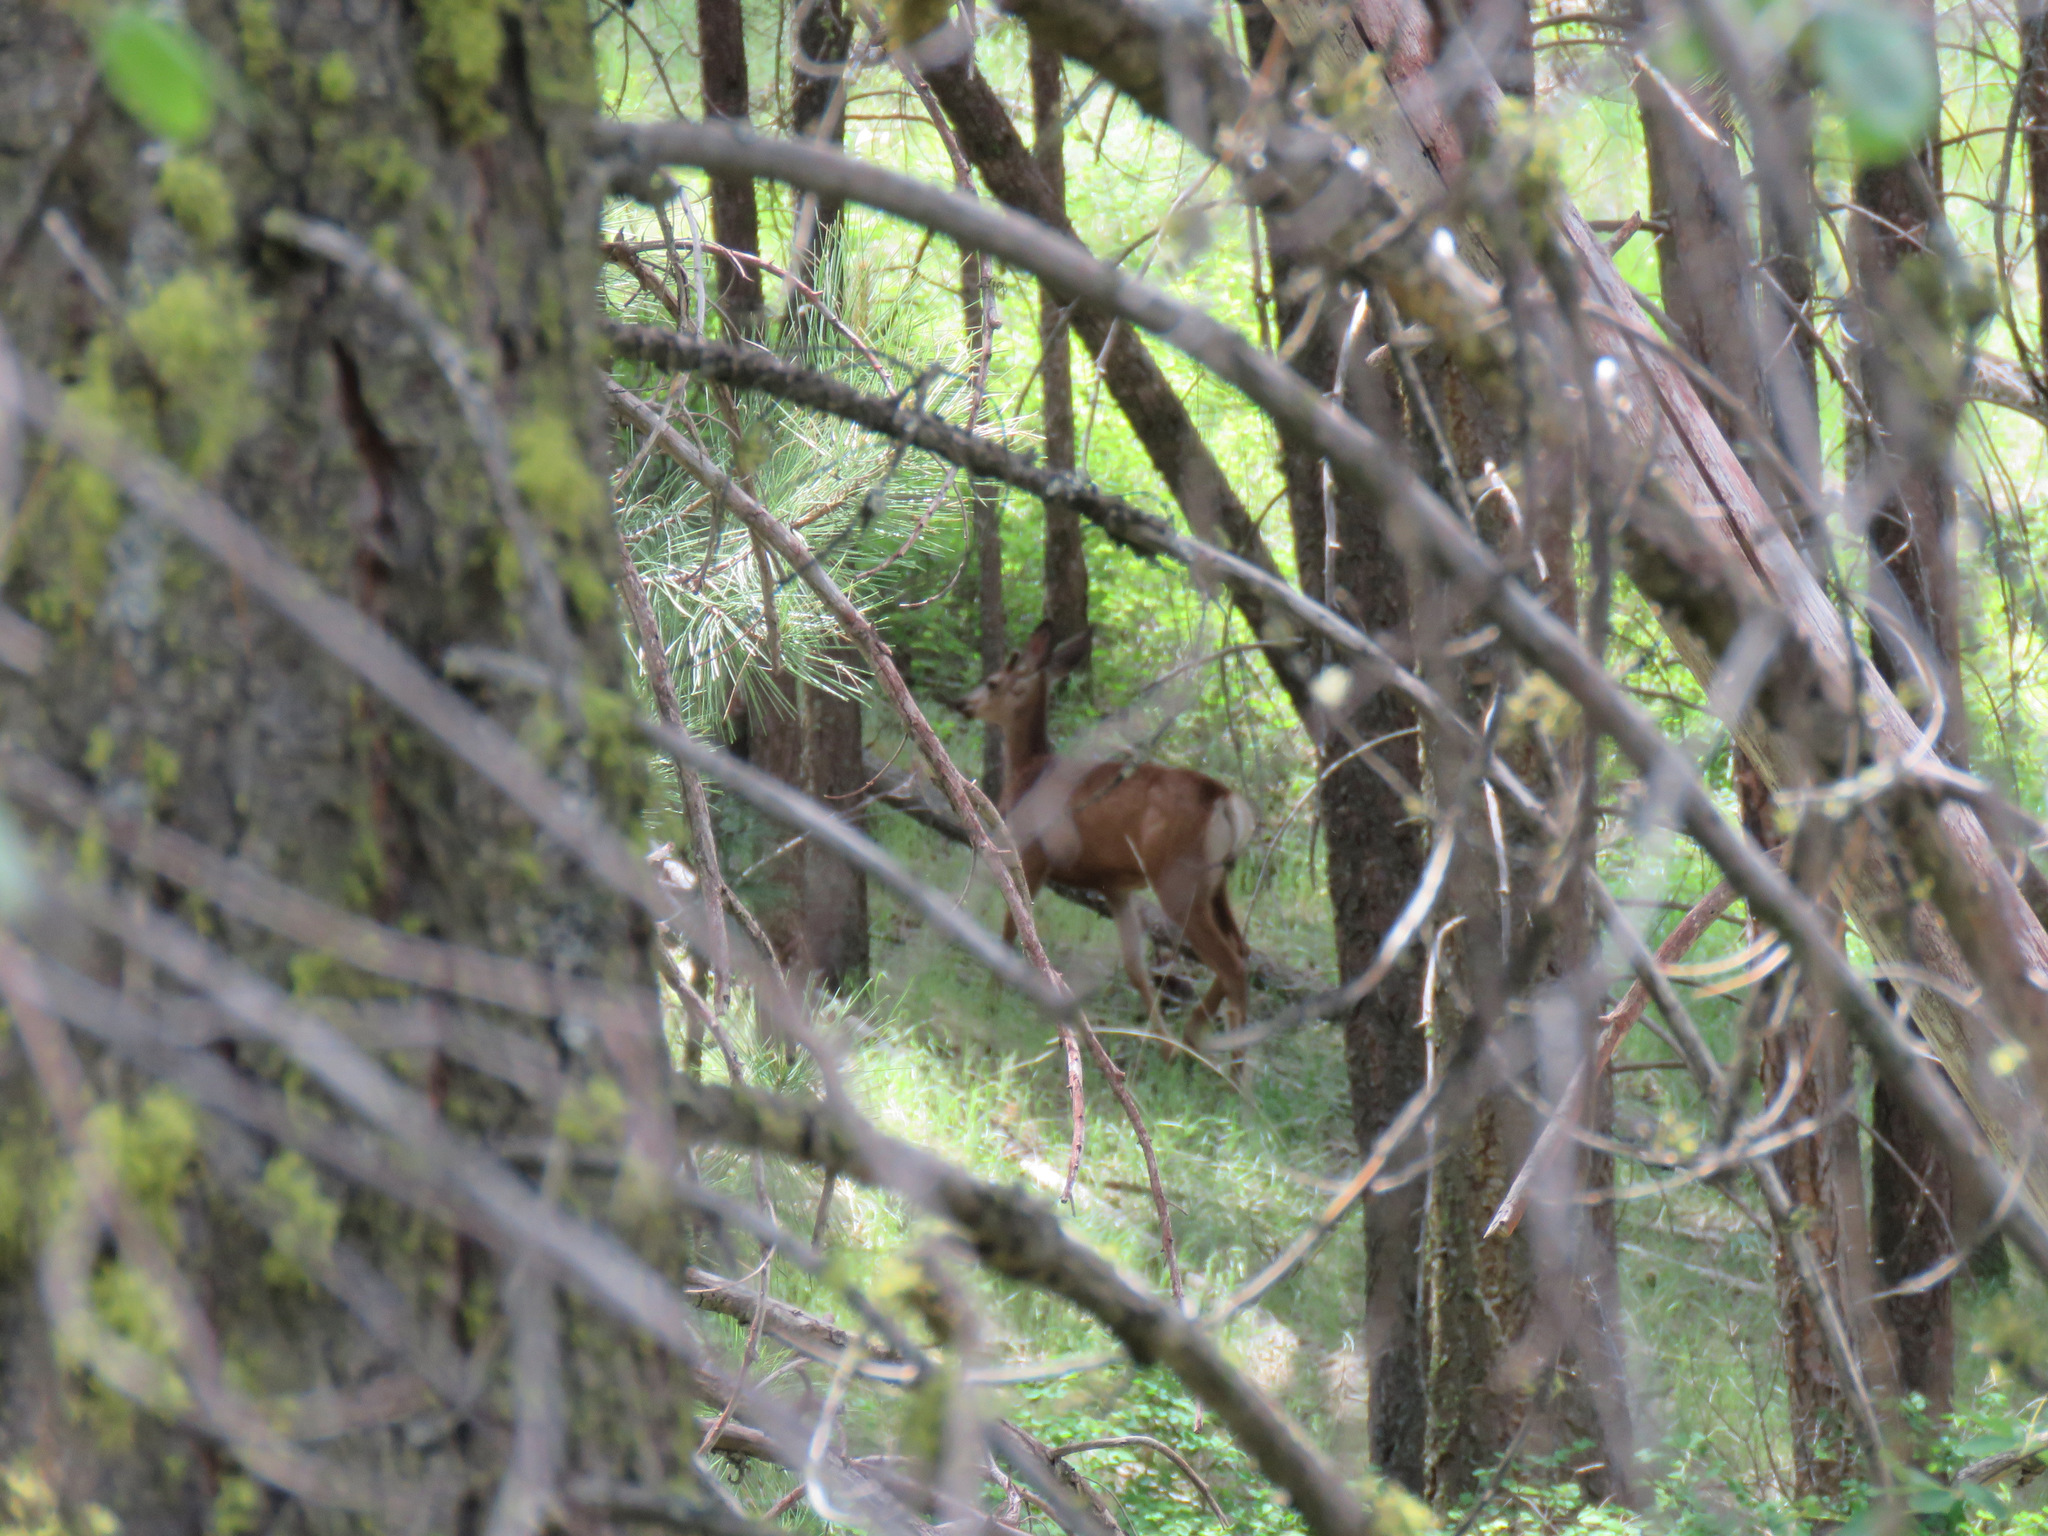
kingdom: Animalia
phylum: Chordata
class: Mammalia
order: Artiodactyla
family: Cervidae
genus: Odocoileus
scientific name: Odocoileus hemionus
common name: Mule deer
